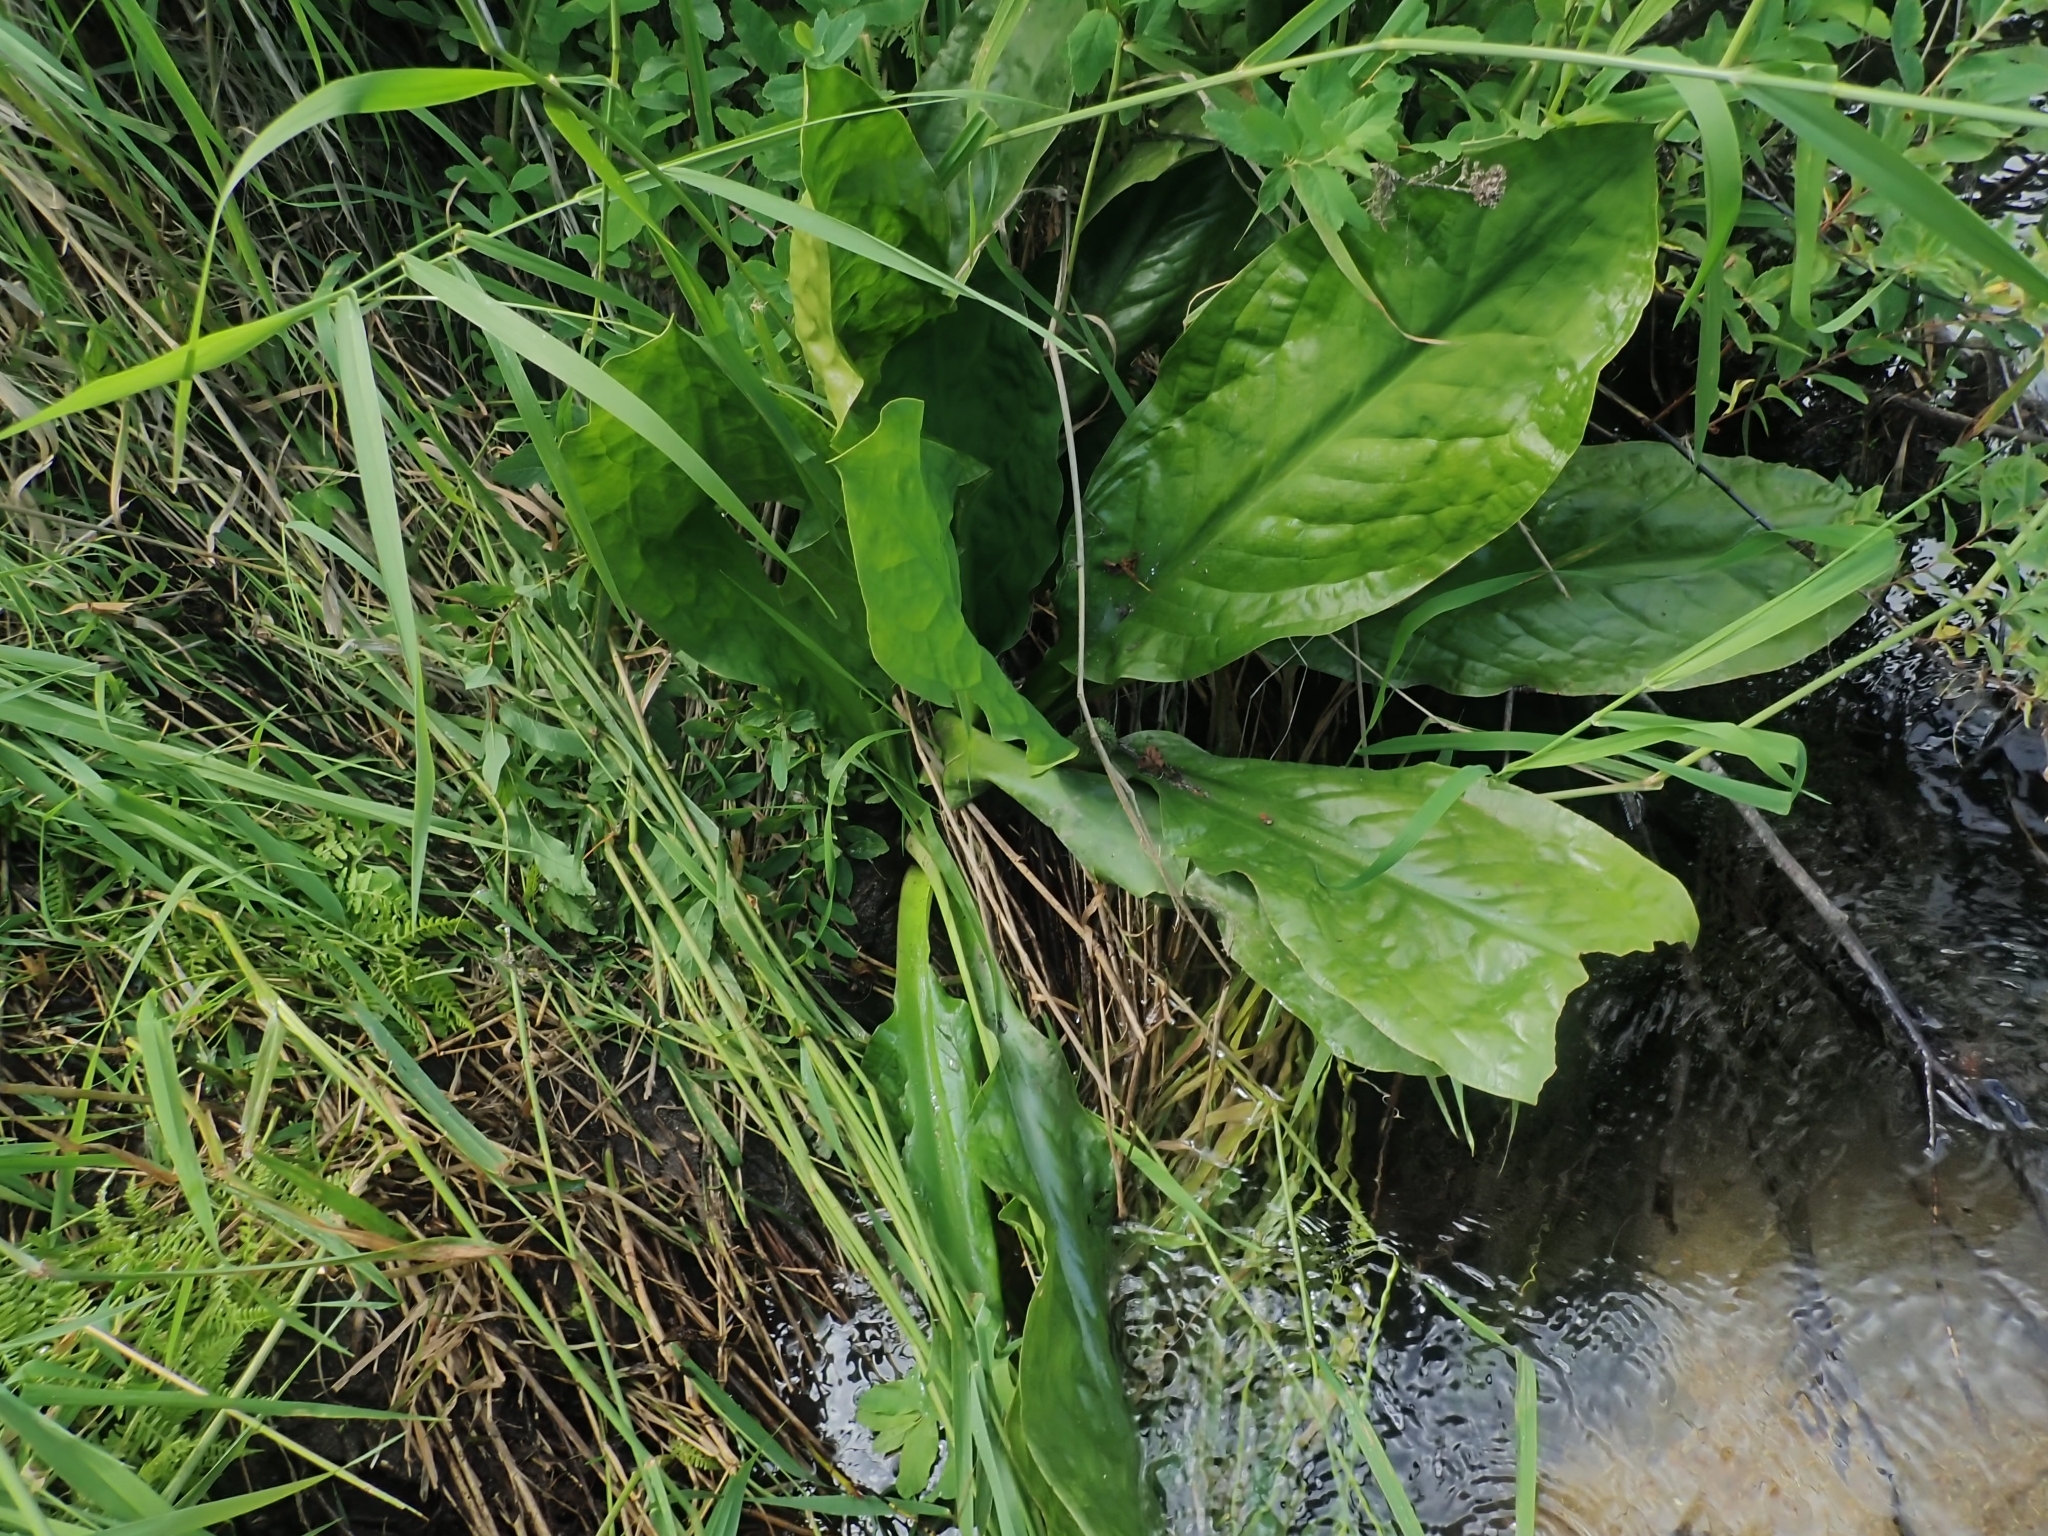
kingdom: Plantae
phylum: Tracheophyta
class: Liliopsida
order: Alismatales
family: Araceae
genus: Lysichiton
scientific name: Lysichiton americanus
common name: American skunk cabbage
